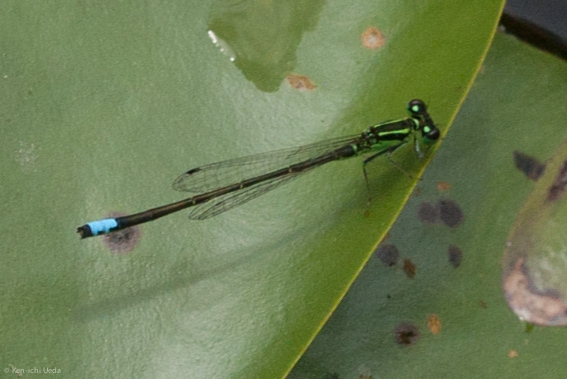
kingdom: Animalia
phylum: Arthropoda
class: Insecta
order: Odonata
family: Coenagrionidae
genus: Ischnura
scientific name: Ischnura verticalis
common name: Eastern forktail
